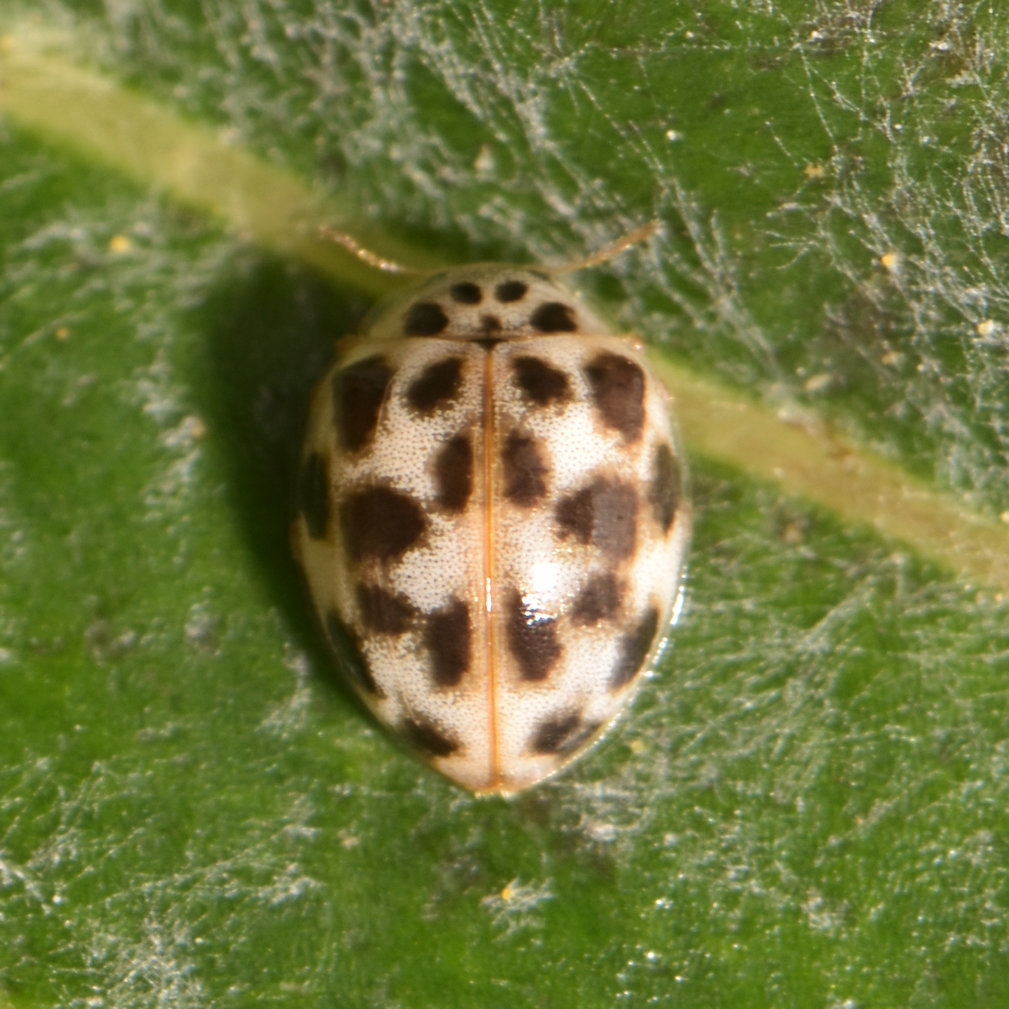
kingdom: Animalia
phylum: Arthropoda
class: Insecta
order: Coleoptera
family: Coccinellidae
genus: Psyllobora
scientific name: Psyllobora vigintimaculata
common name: Ladybird beetle
